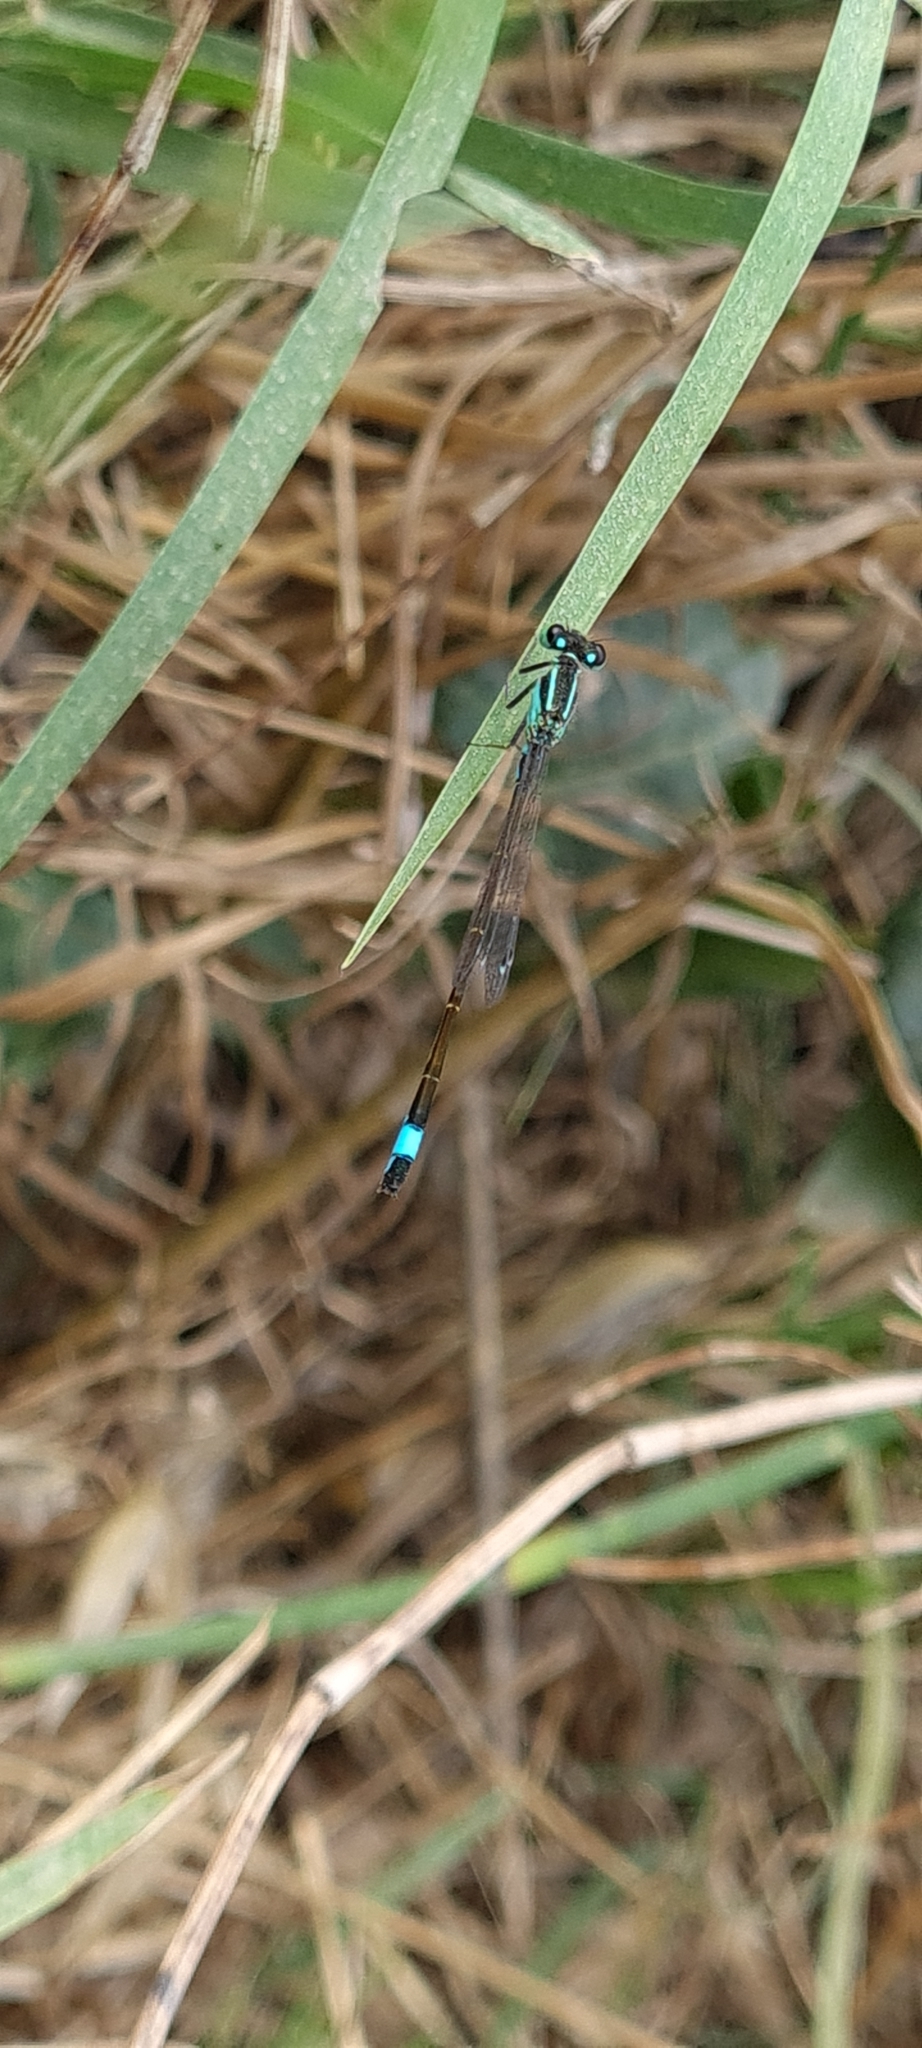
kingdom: Animalia
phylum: Arthropoda
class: Insecta
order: Odonata
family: Coenagrionidae
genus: Ischnura
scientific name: Ischnura elegans
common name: Blue-tailed damselfly
